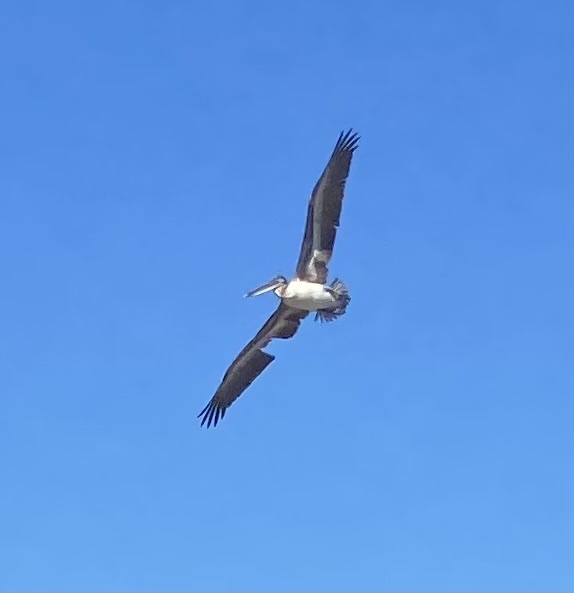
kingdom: Animalia
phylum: Chordata
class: Aves
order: Pelecaniformes
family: Pelecanidae
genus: Pelecanus
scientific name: Pelecanus occidentalis
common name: Brown pelican
